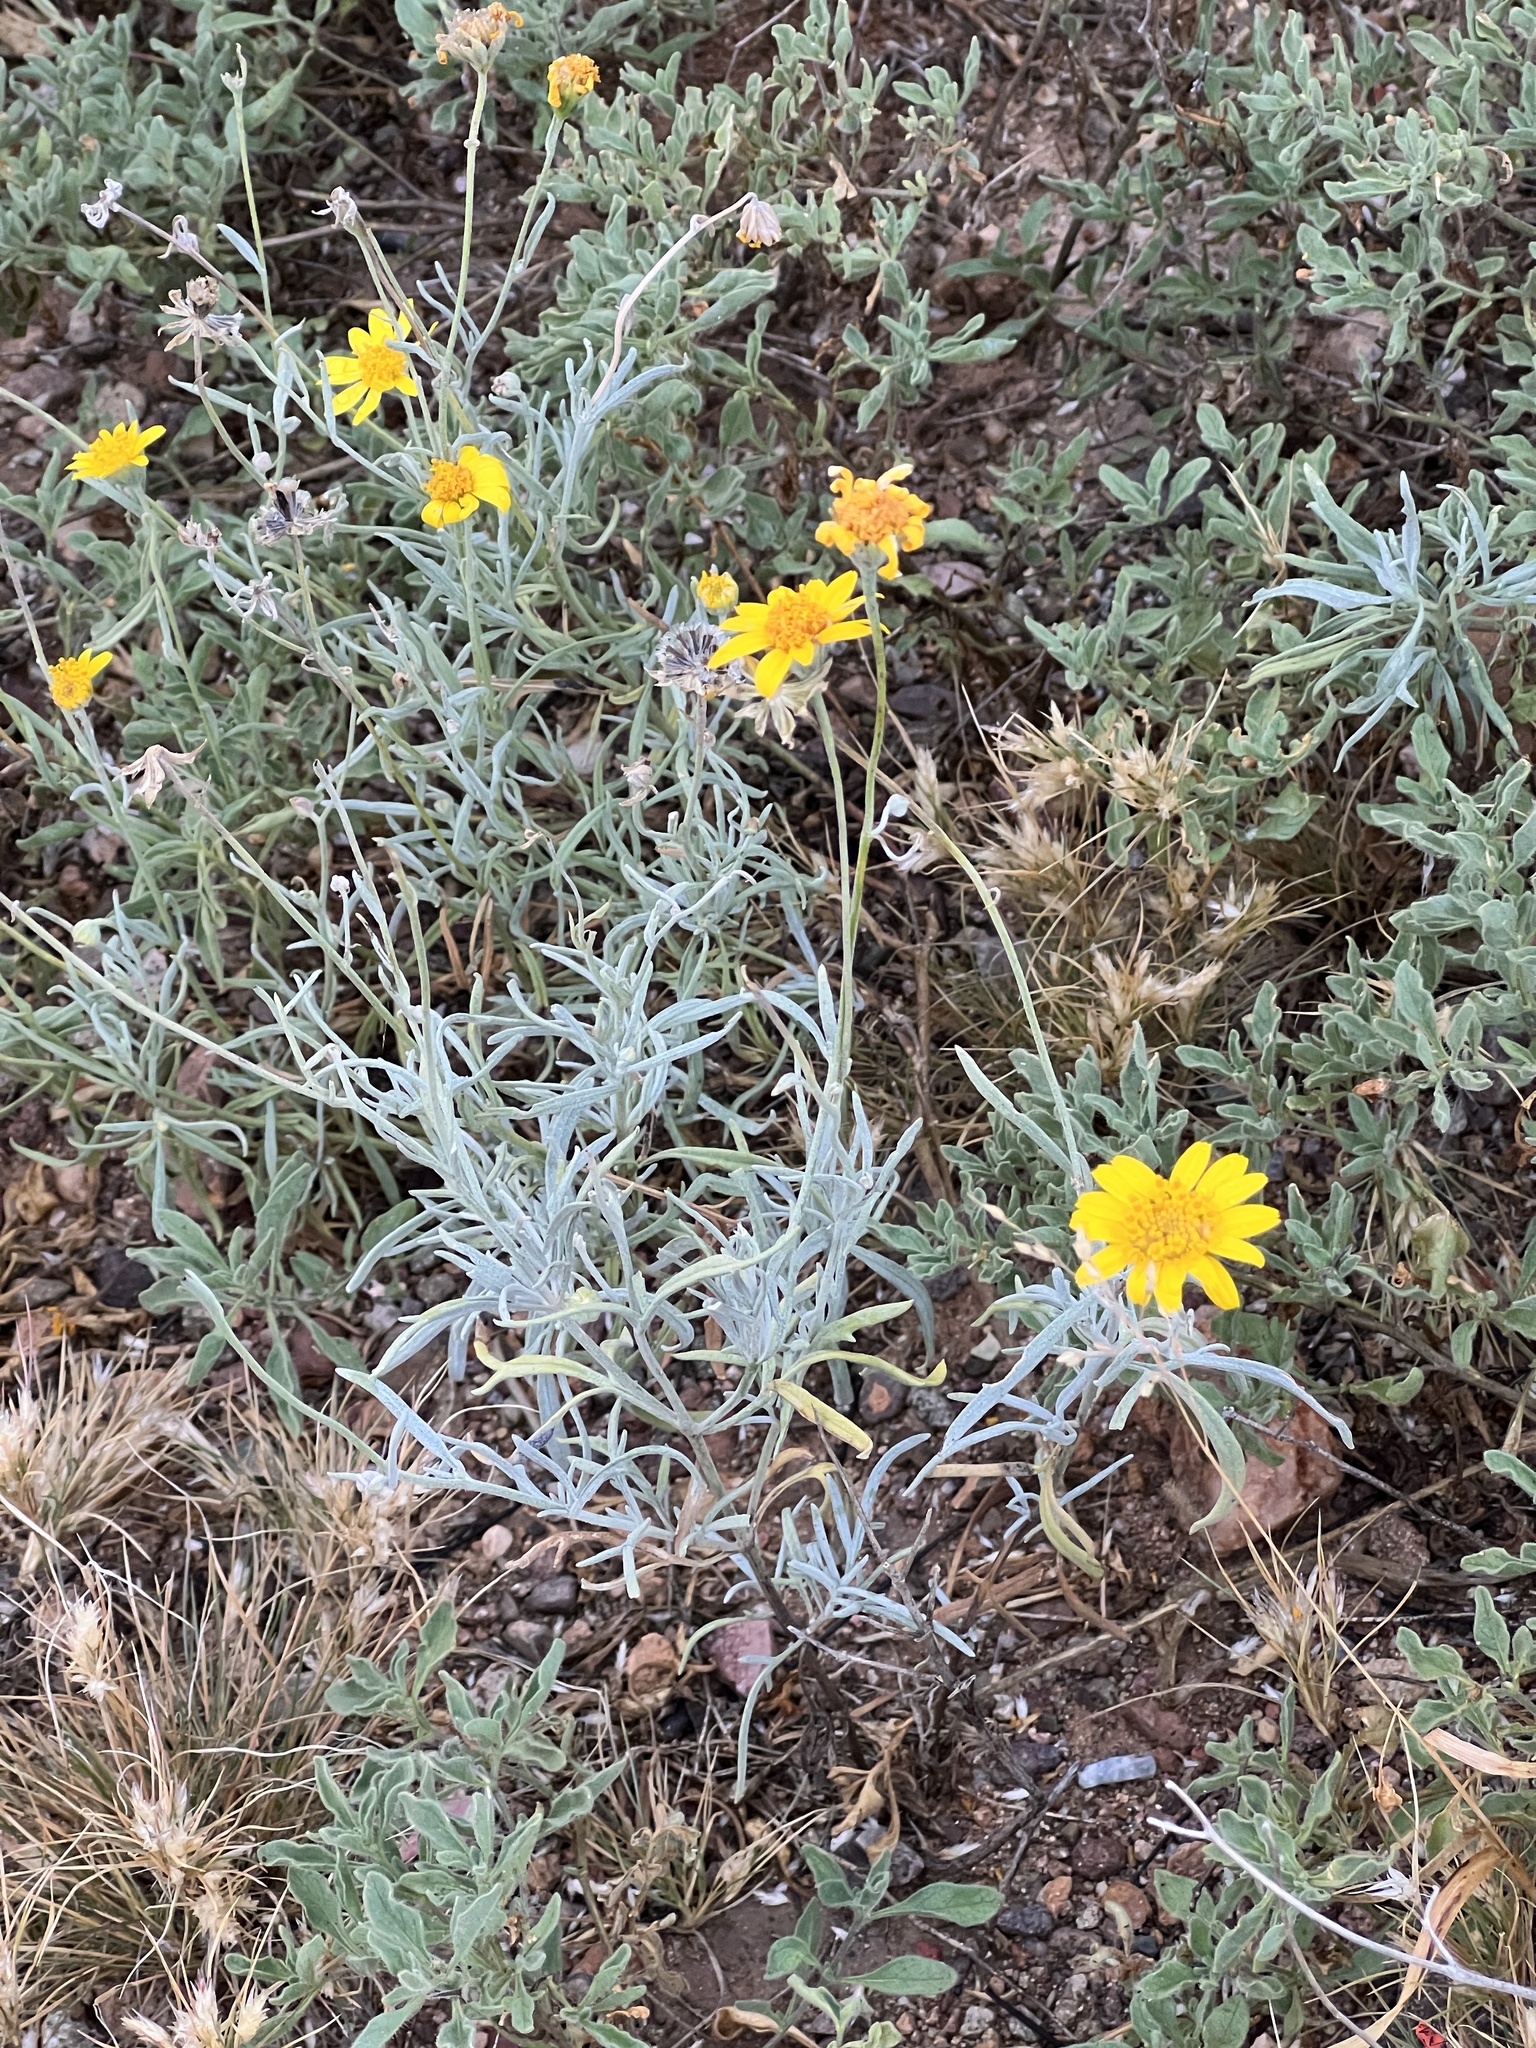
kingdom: Plantae
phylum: Tracheophyta
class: Magnoliopsida
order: Asterales
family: Asteraceae
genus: Picradeniopsis
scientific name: Picradeniopsis absinthifolia
